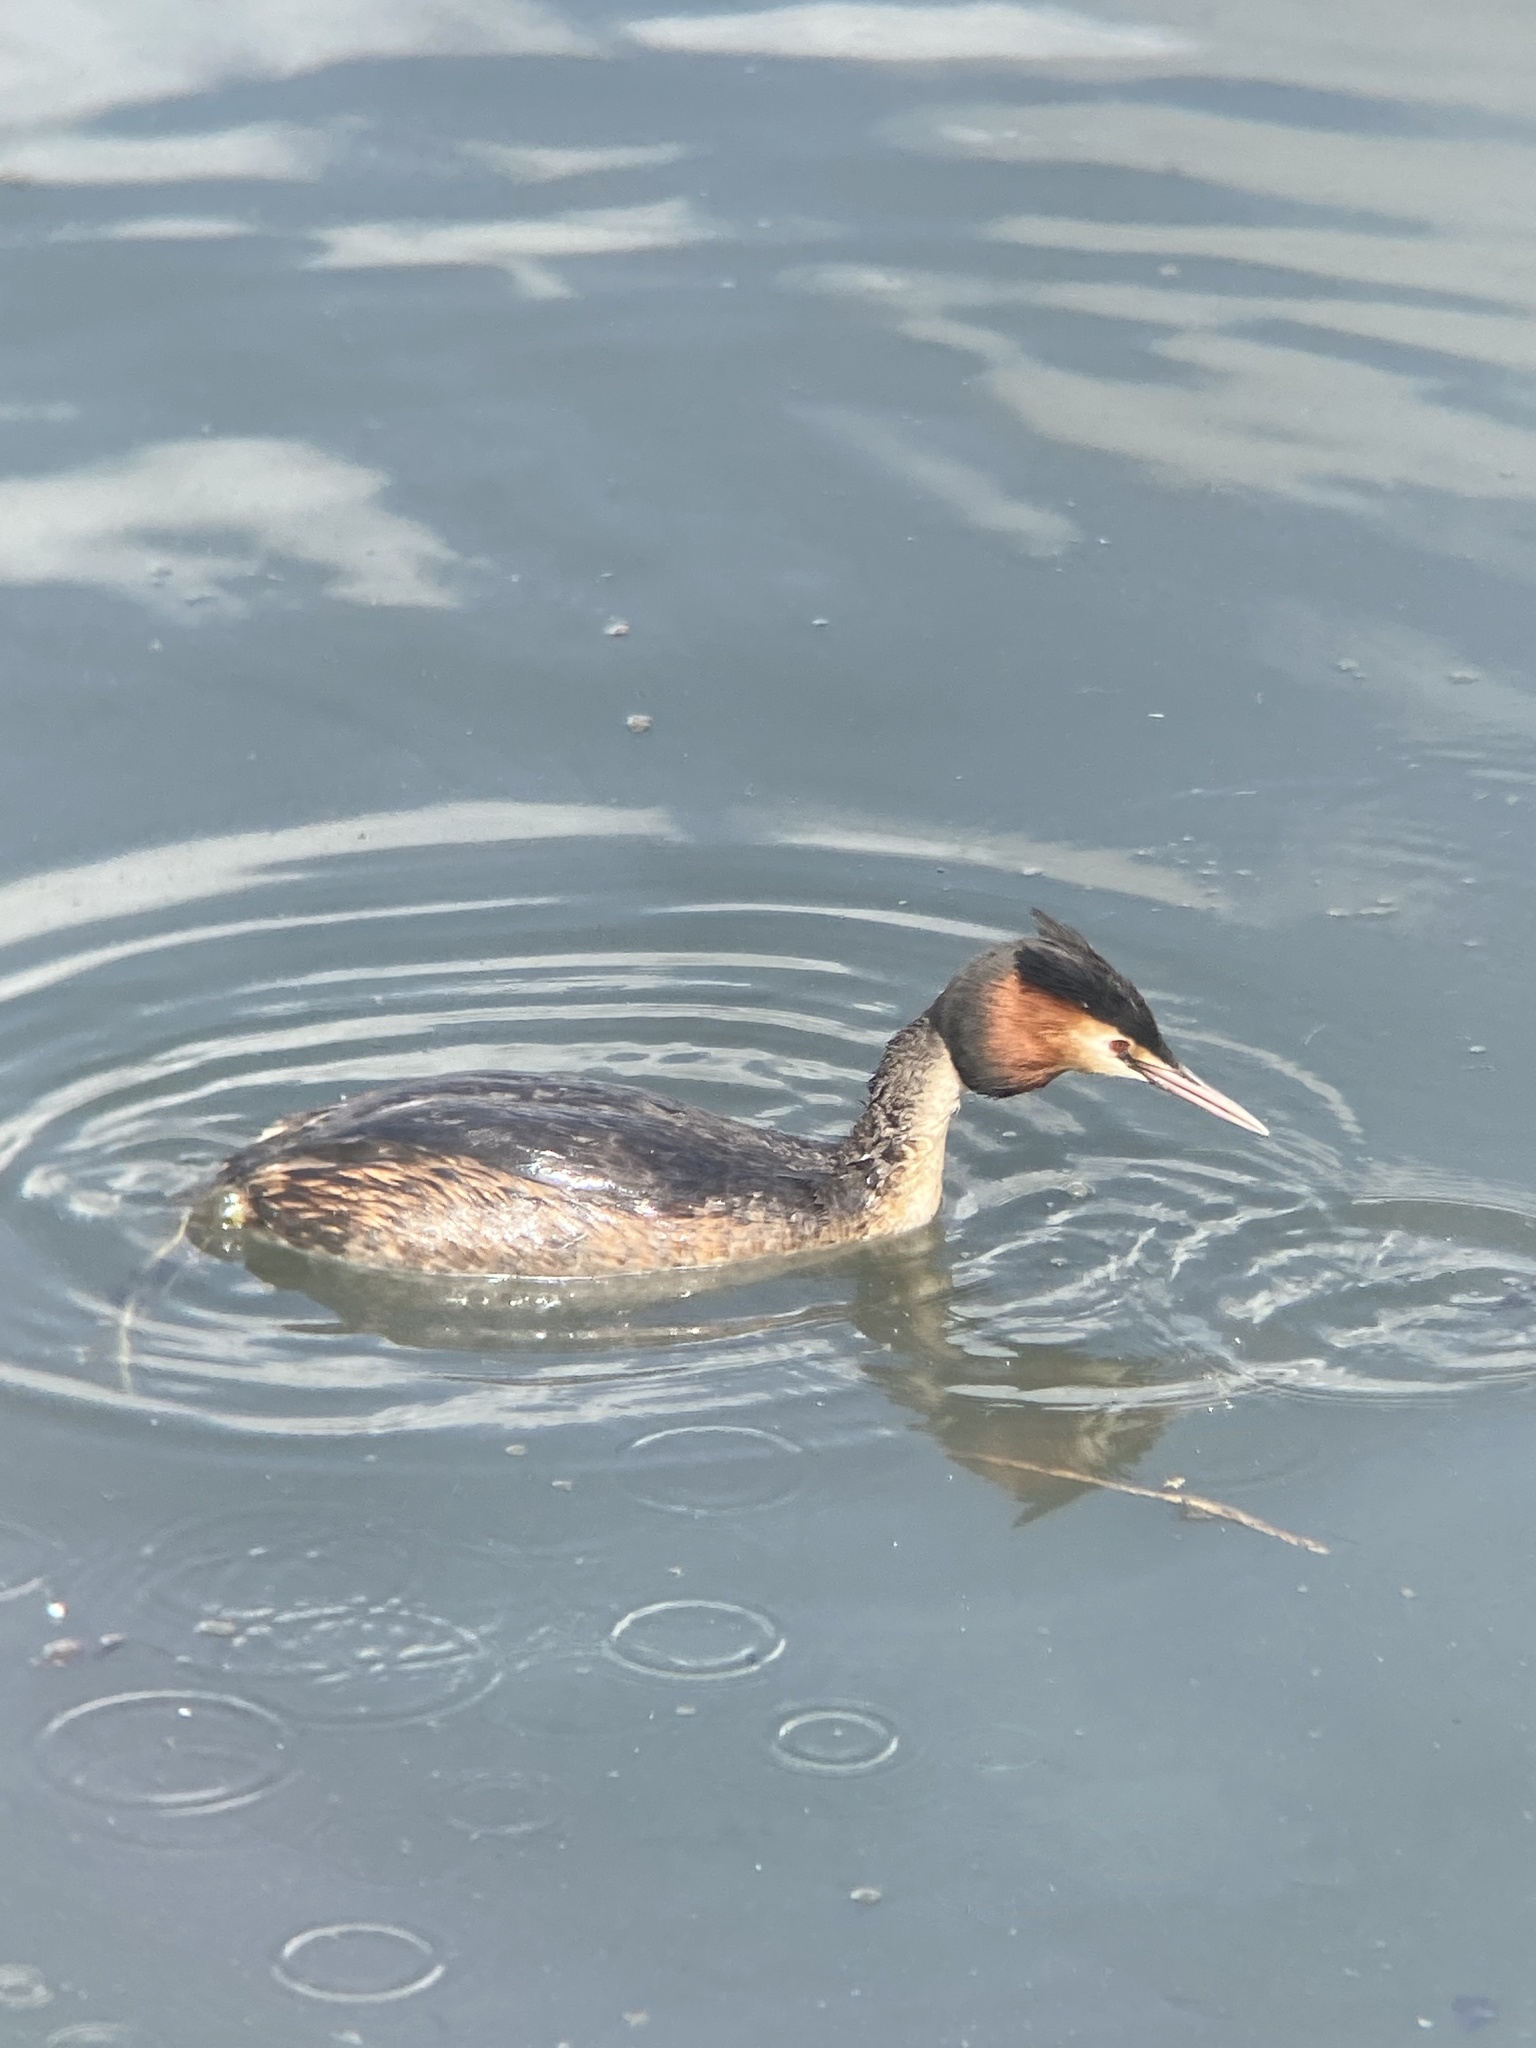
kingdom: Animalia
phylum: Chordata
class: Aves
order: Podicipediformes
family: Podicipedidae
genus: Podiceps
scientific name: Podiceps cristatus
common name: Great crested grebe
